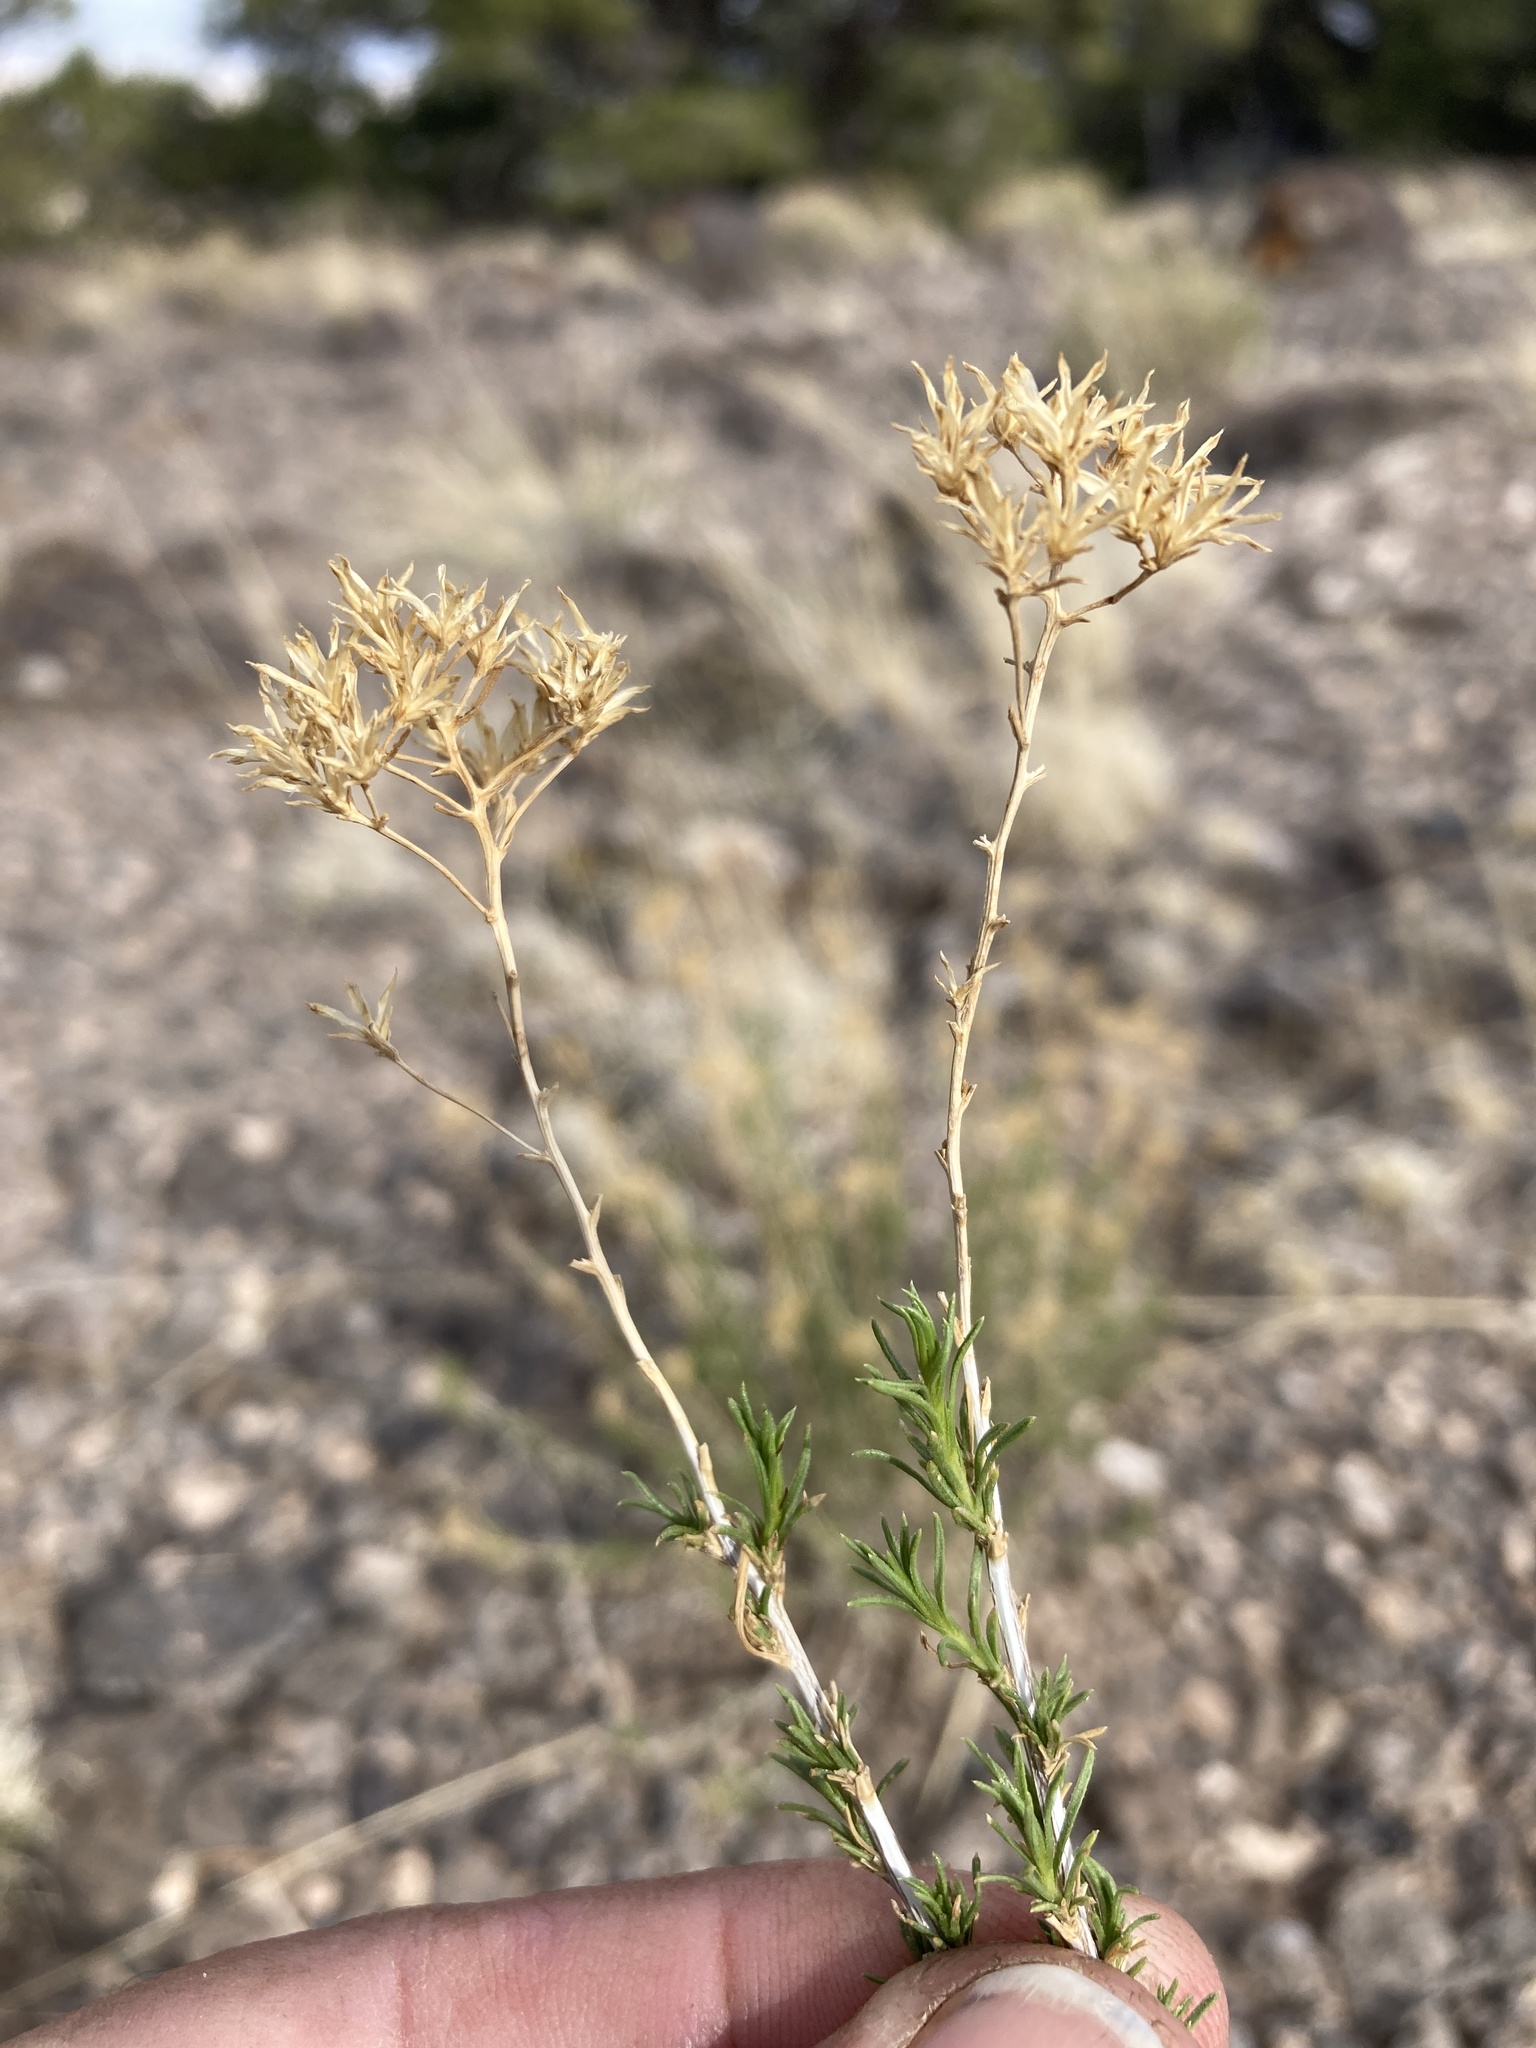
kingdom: Plantae
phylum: Tracheophyta
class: Magnoliopsida
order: Asterales
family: Asteraceae
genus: Chrysothamnus
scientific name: Chrysothamnus greenei
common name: Greene's rabbitbrush
